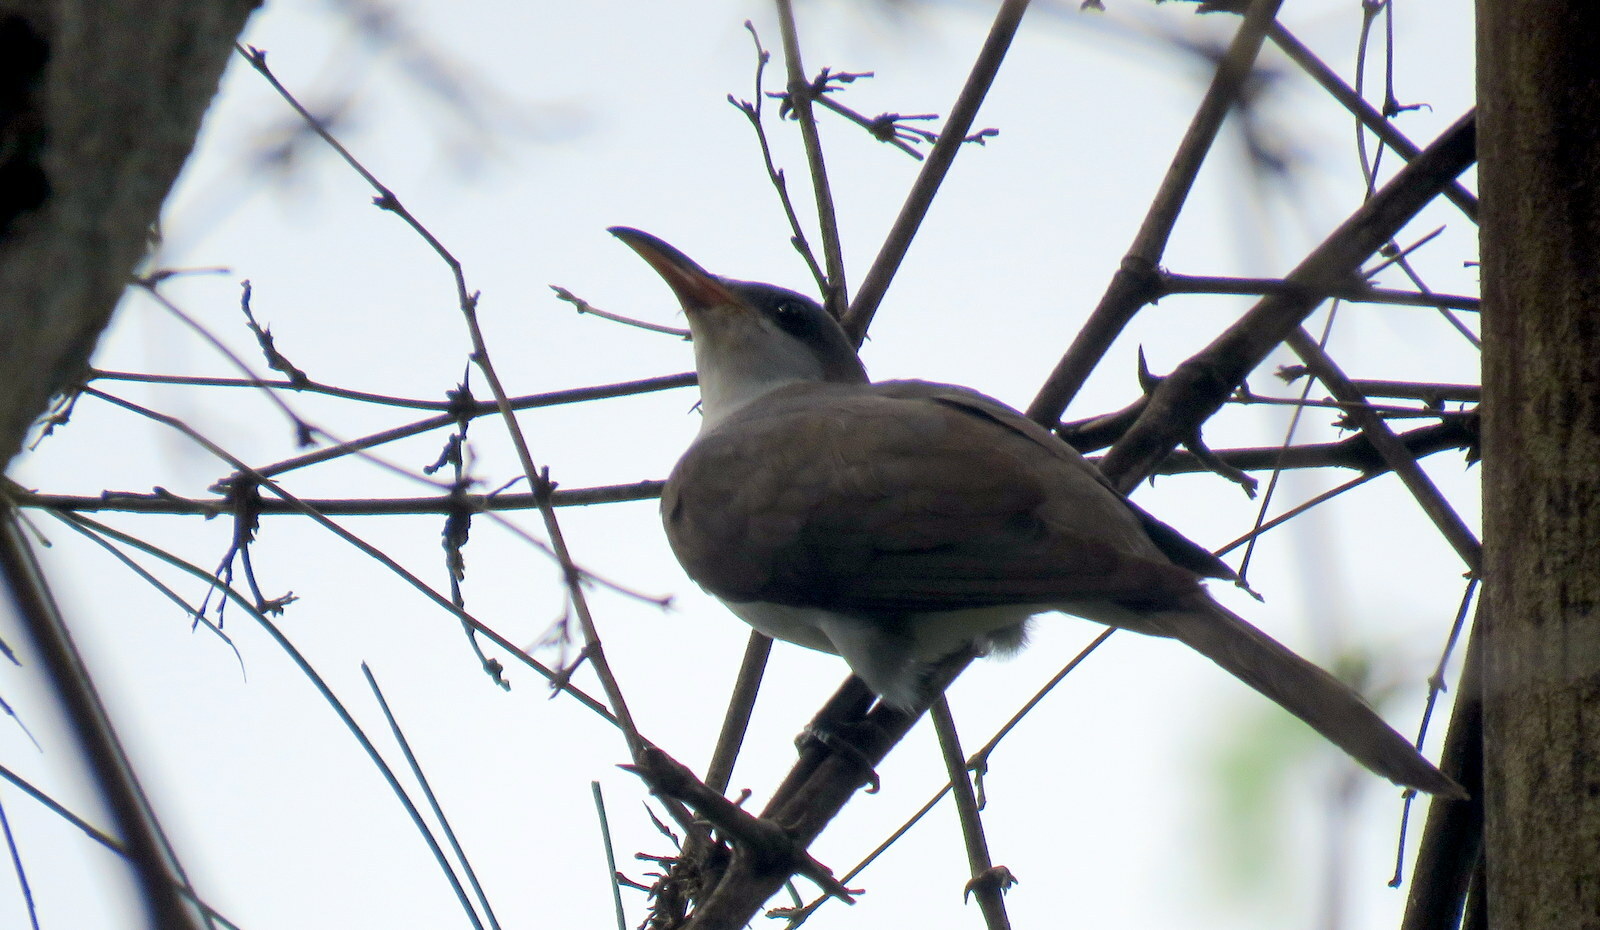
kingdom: Animalia
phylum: Chordata
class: Aves
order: Cuculiformes
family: Cuculidae
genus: Coccyzus
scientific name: Coccyzus euleri
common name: Pearly-breasted cuckoo
